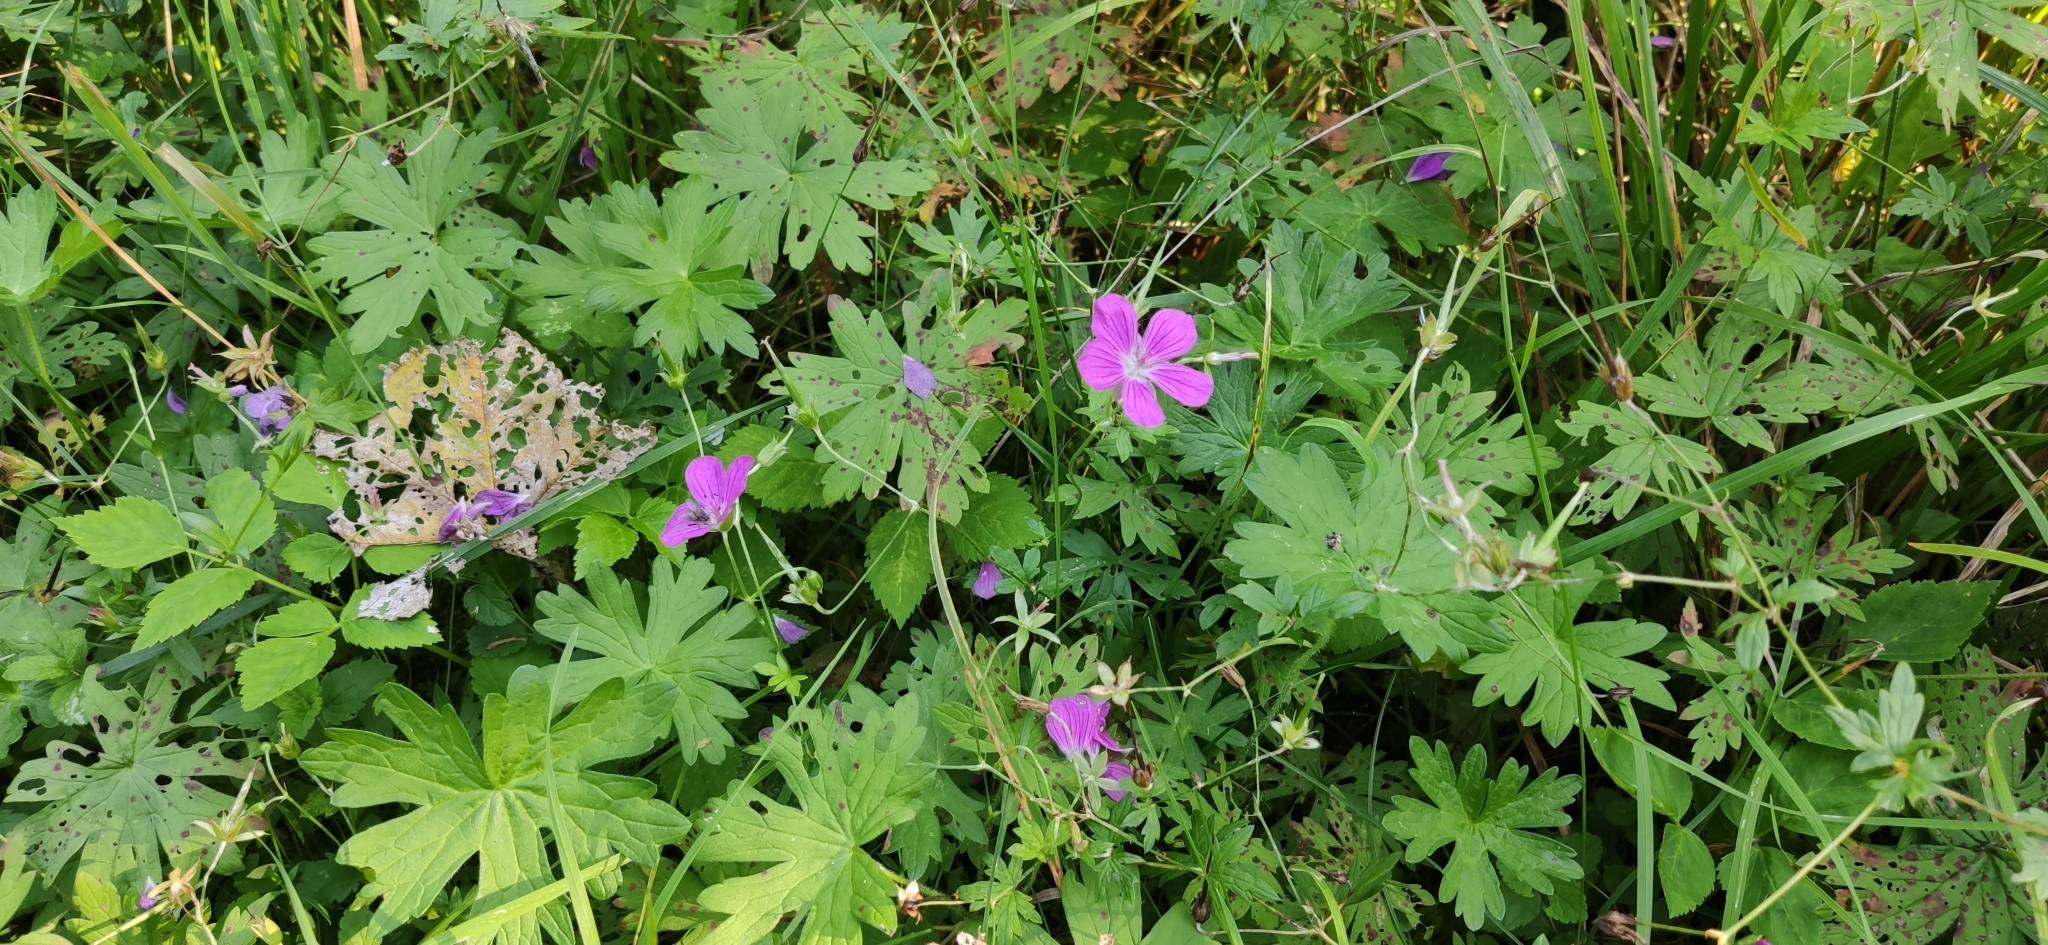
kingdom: Plantae
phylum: Tracheophyta
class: Magnoliopsida
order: Geraniales
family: Geraniaceae
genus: Geranium
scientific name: Geranium palustre
